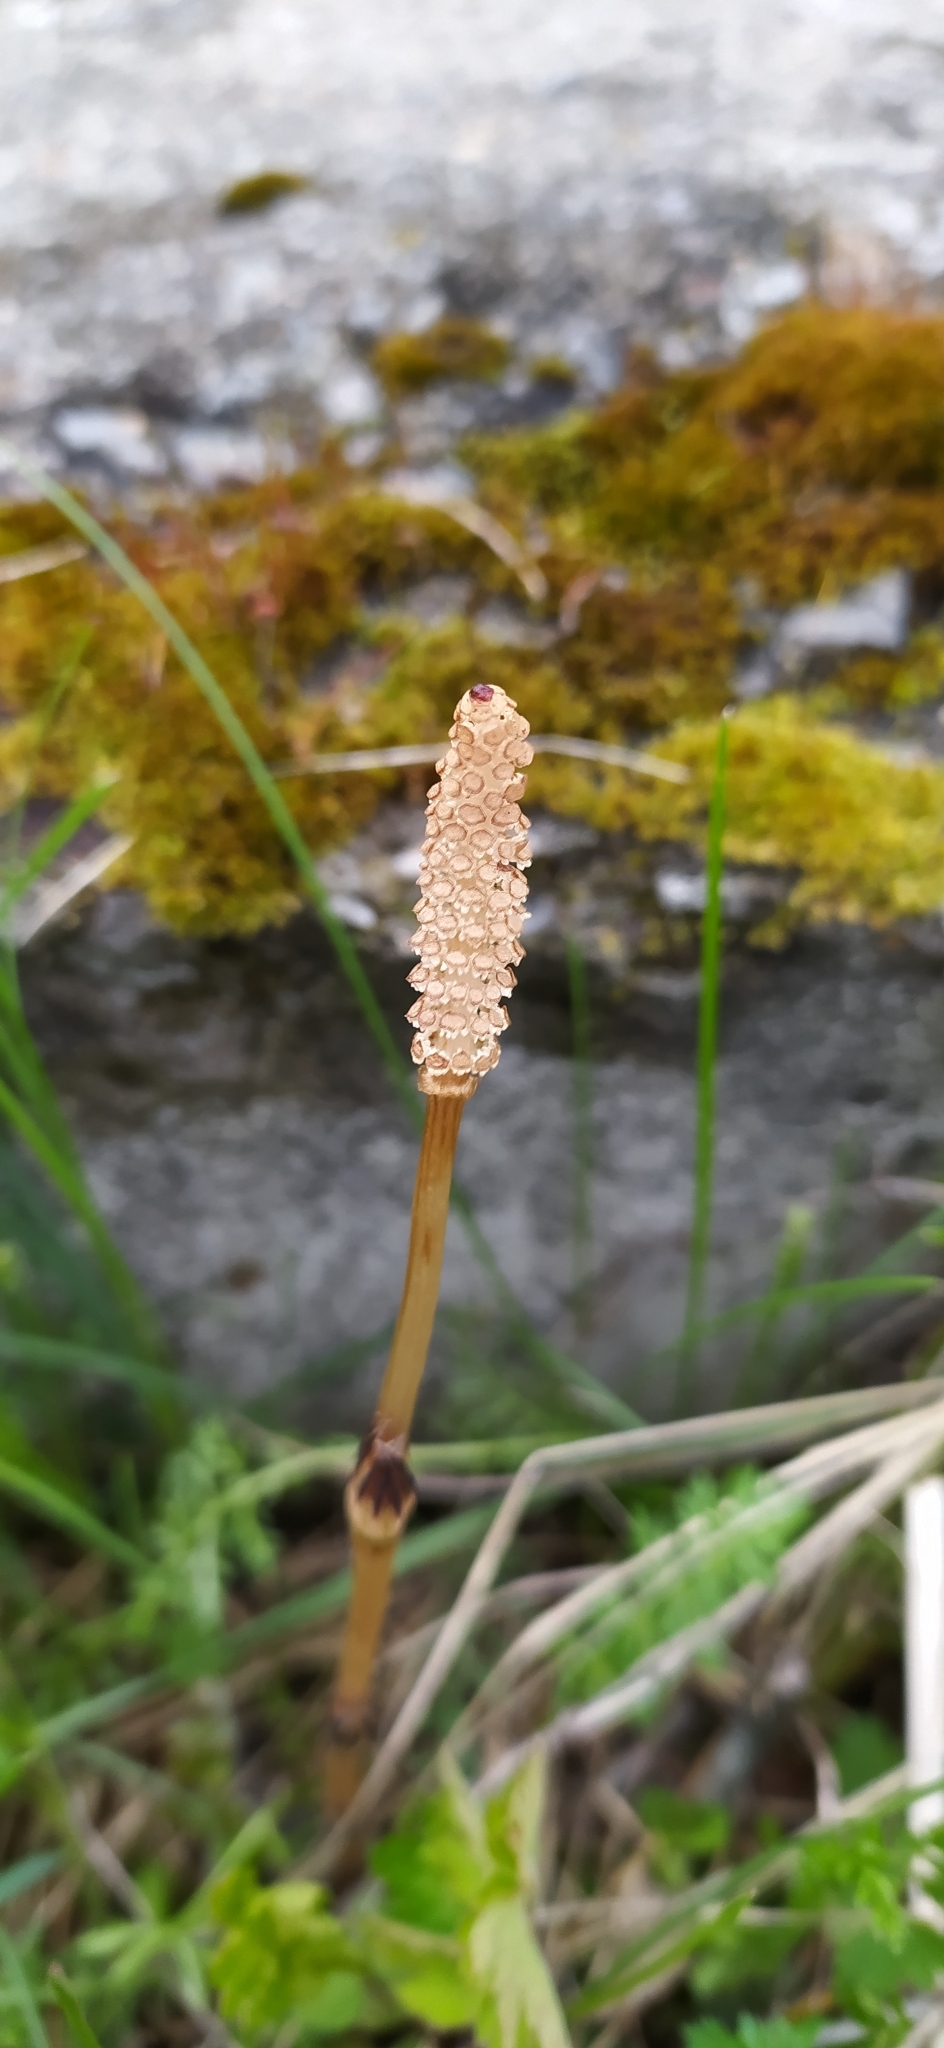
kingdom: Plantae
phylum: Tracheophyta
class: Polypodiopsida
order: Equisetales
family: Equisetaceae
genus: Equisetum
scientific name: Equisetum arvense
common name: Field horsetail
